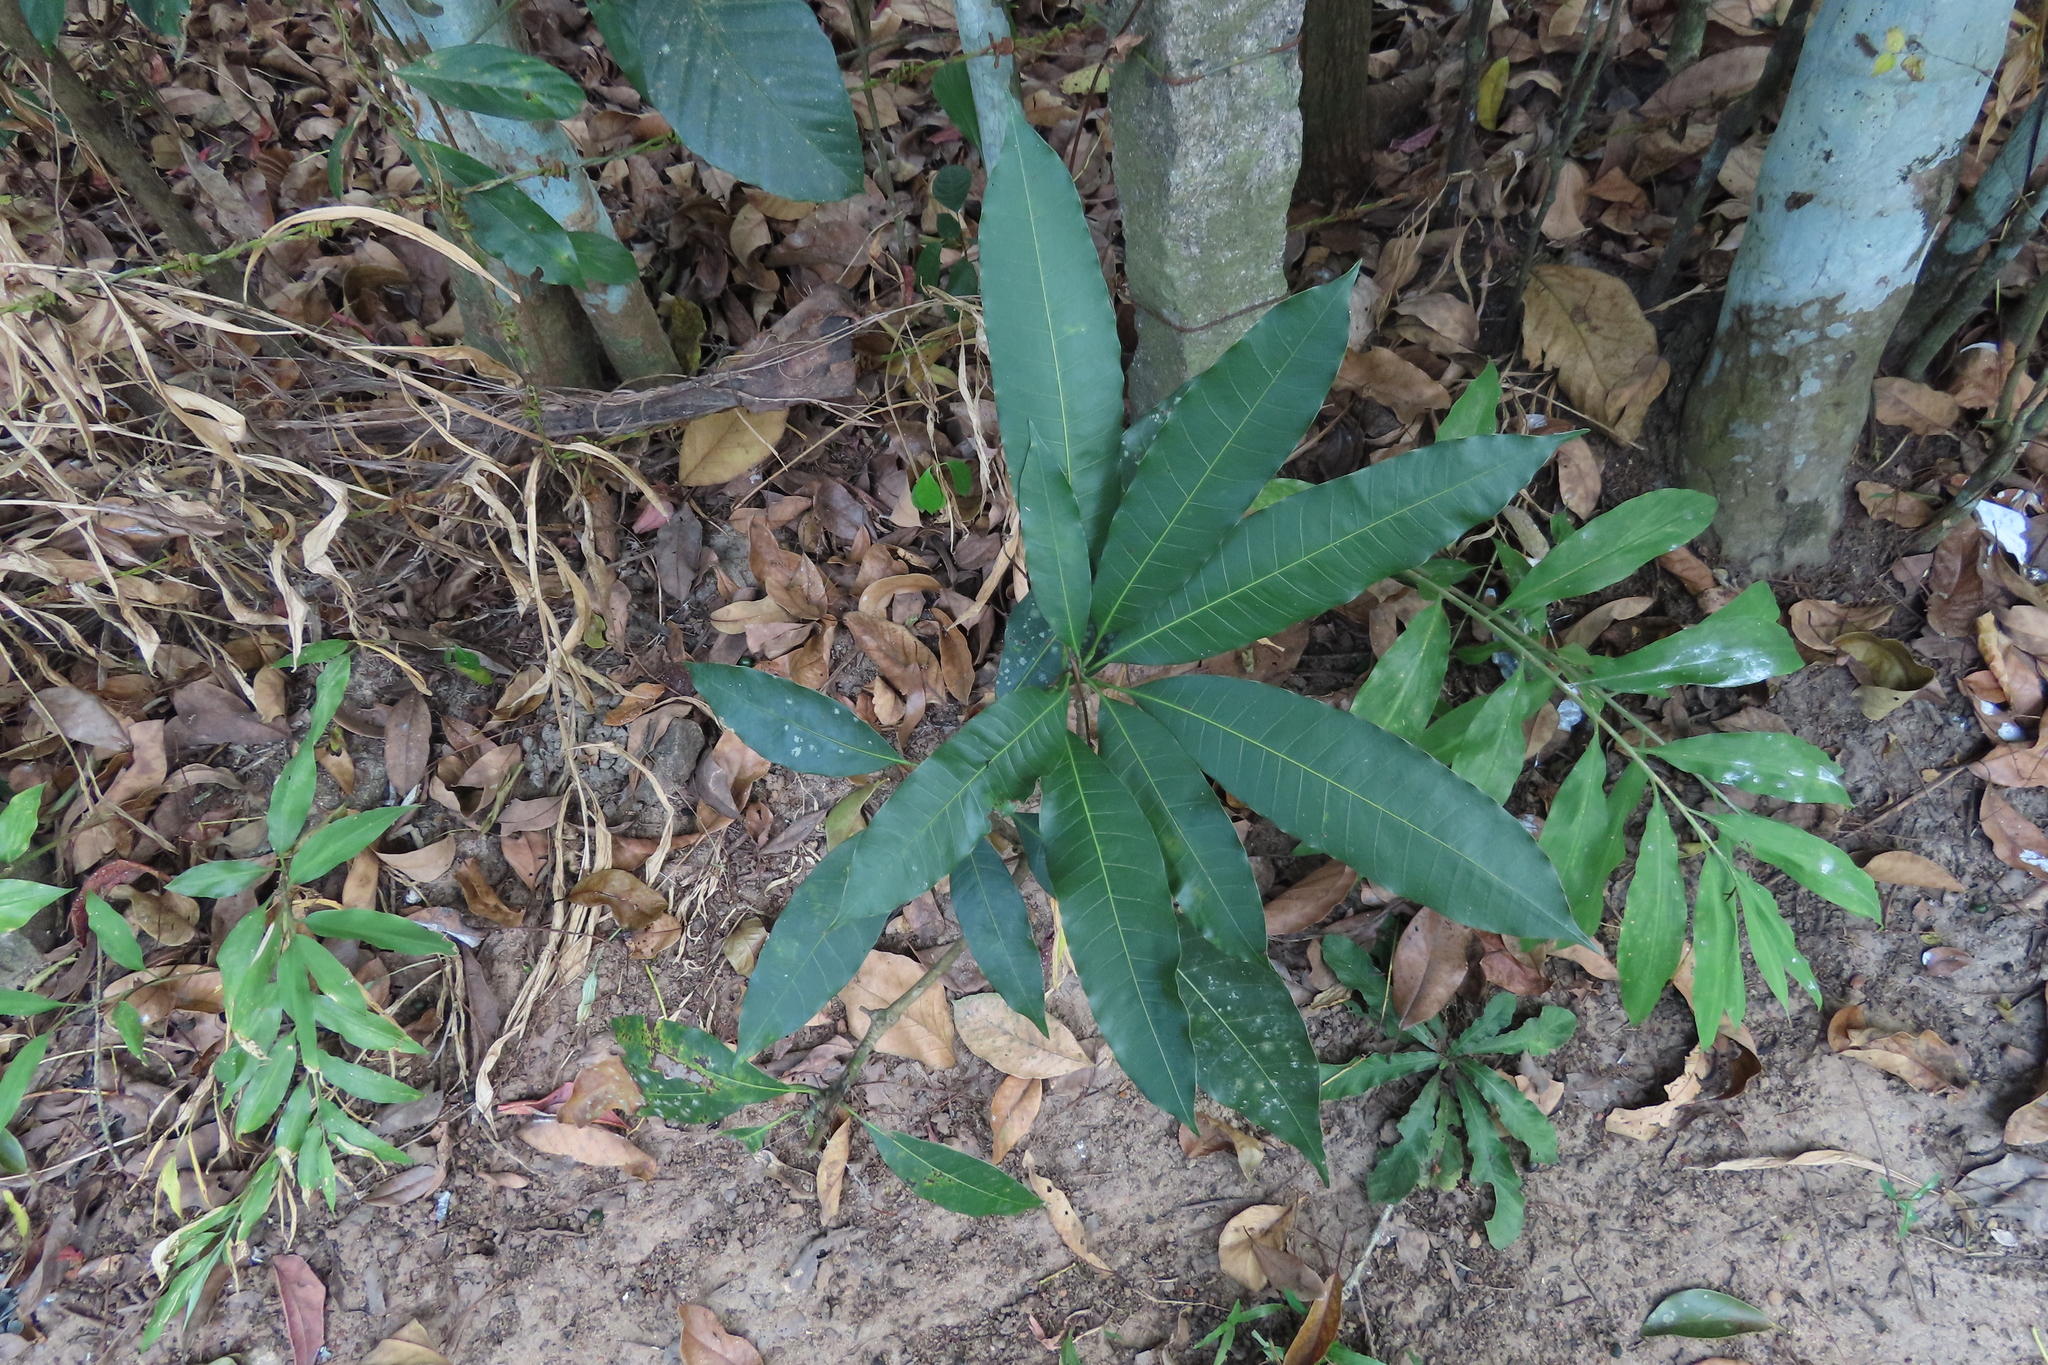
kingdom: Plantae
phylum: Tracheophyta
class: Magnoliopsida
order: Sapindales
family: Anacardiaceae
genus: Mangifera
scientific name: Mangifera indica
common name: Mango
